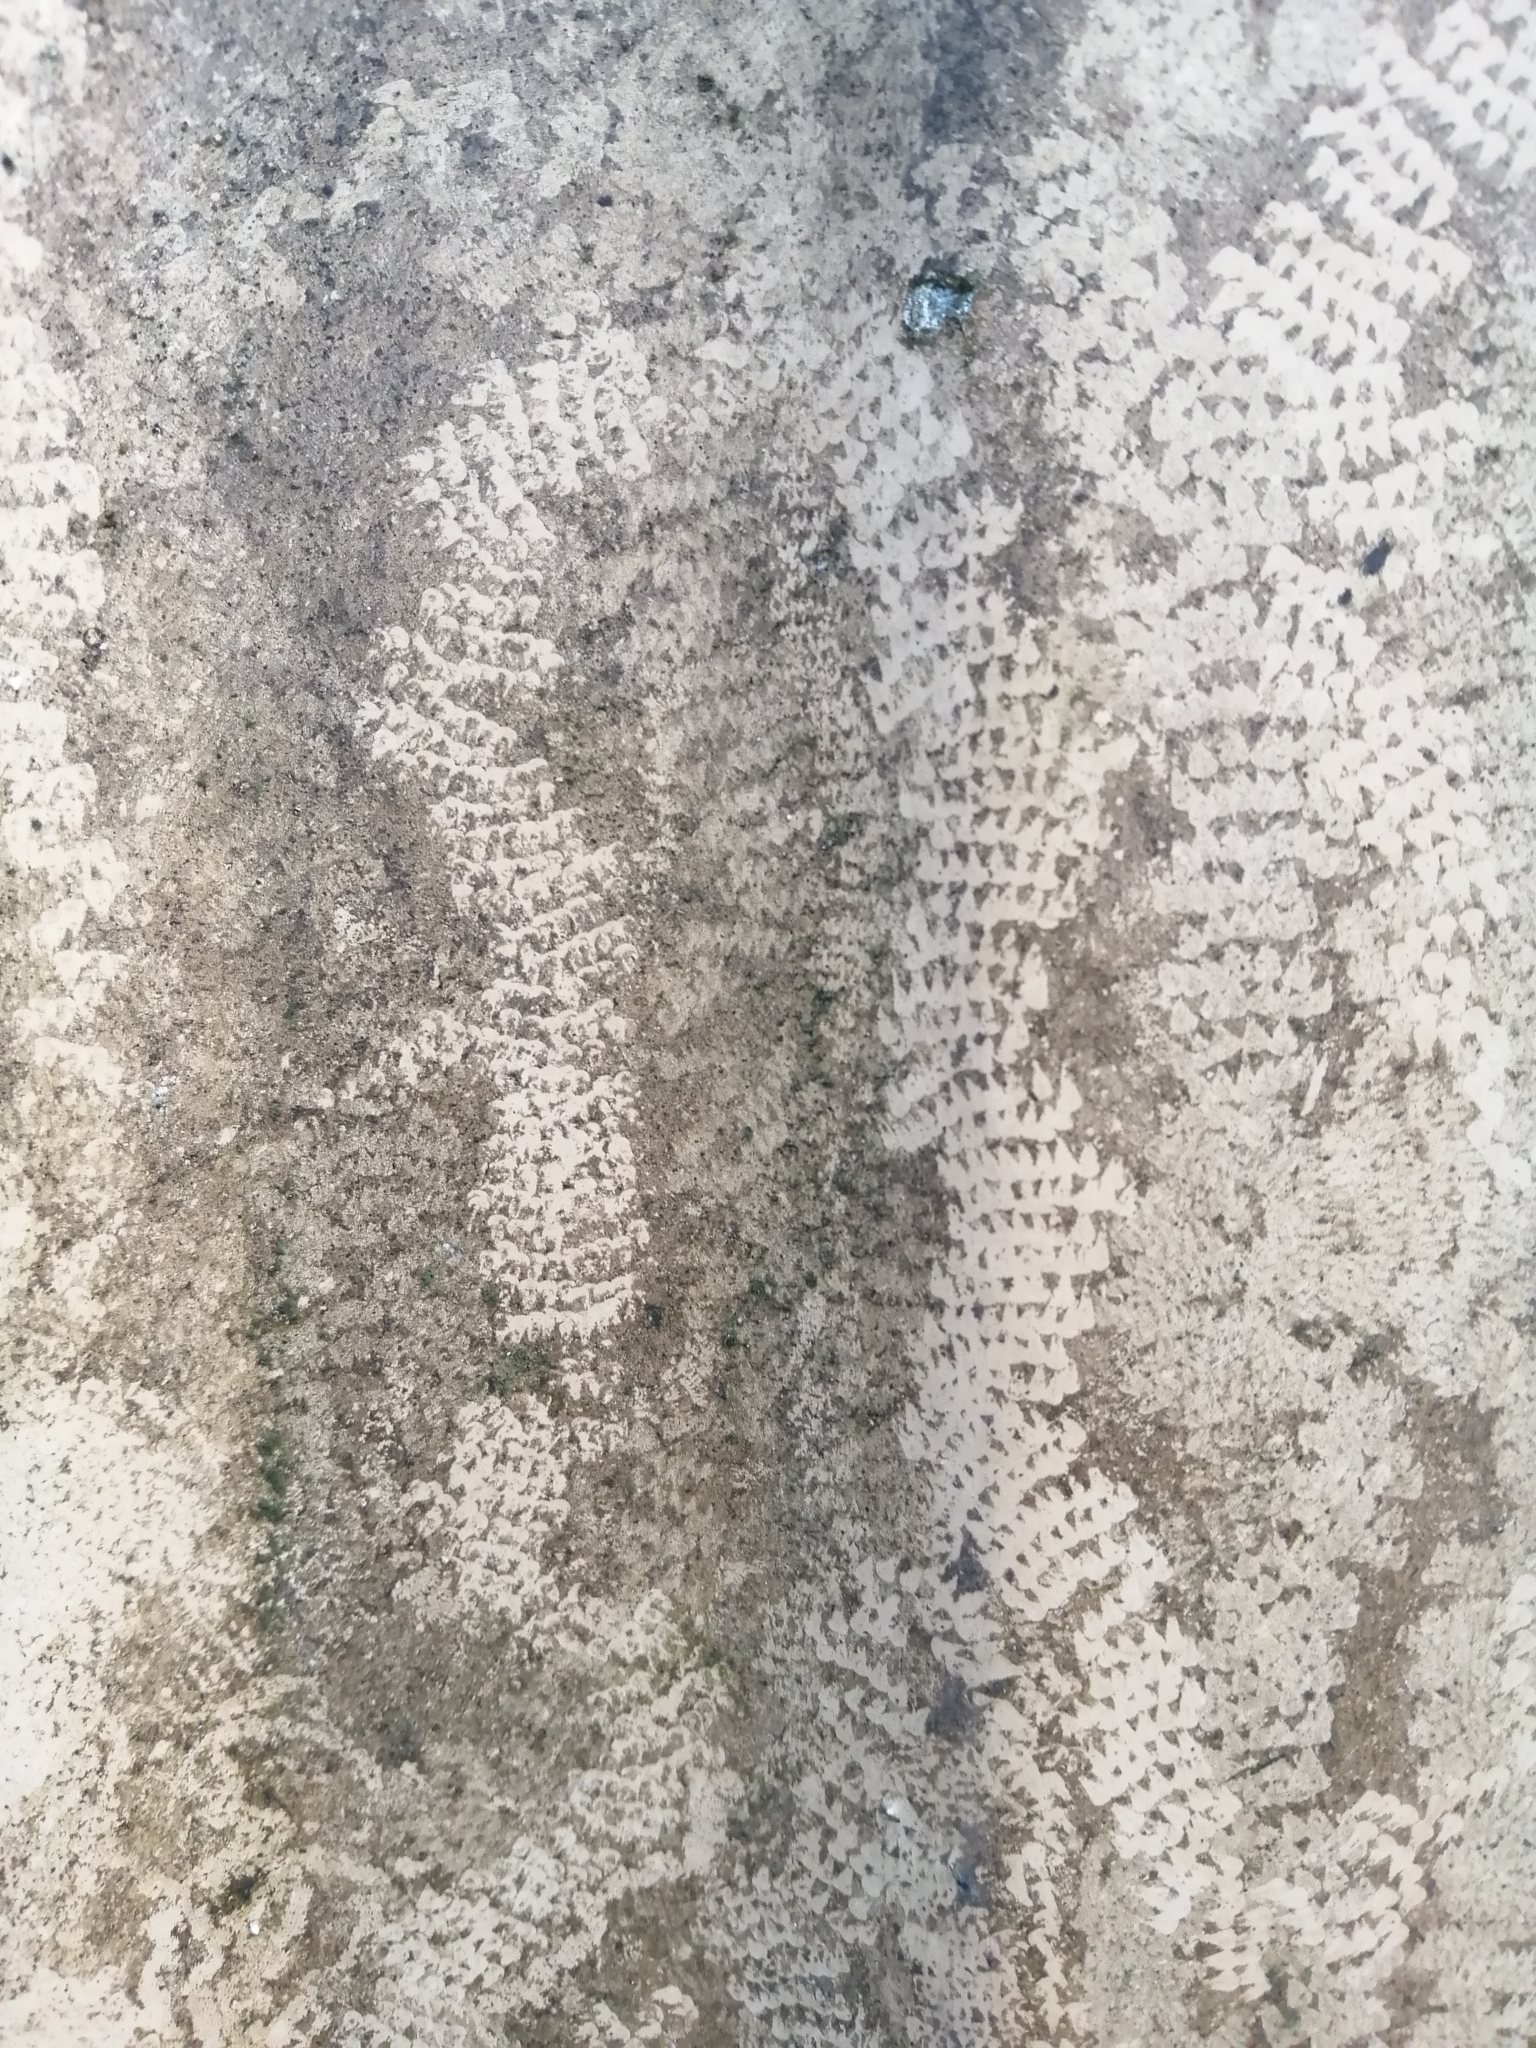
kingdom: Animalia
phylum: Mollusca
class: Gastropoda
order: Stylommatophora
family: Helicidae
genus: Cornu
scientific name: Cornu aspersum
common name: Brown garden snail
